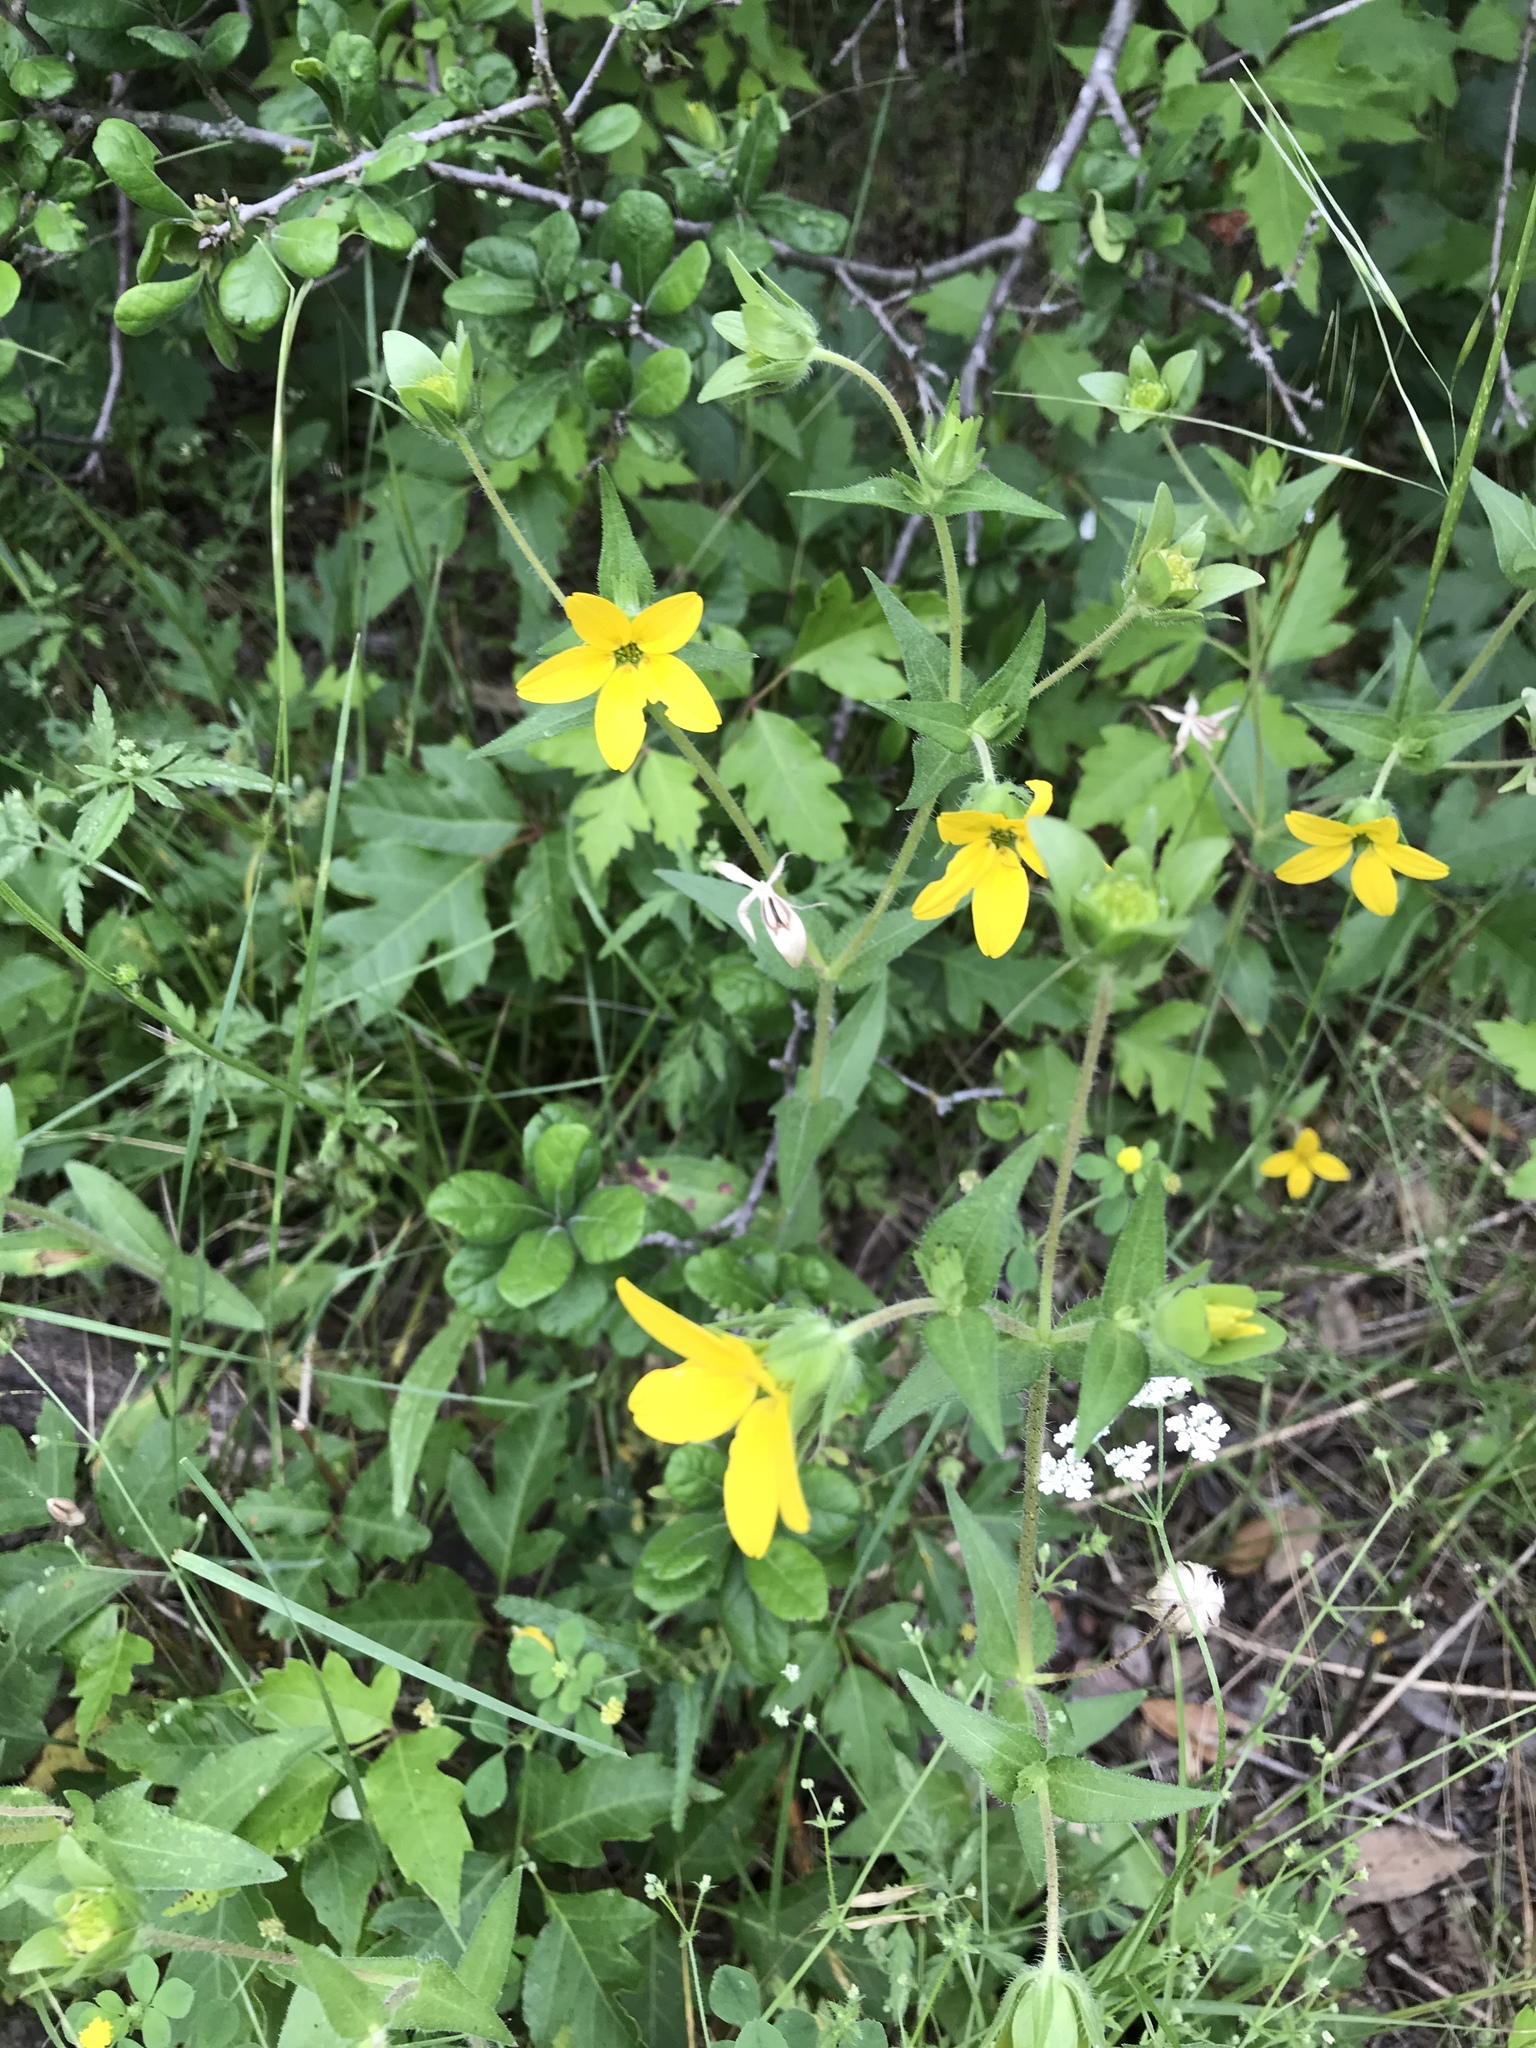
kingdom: Plantae
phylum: Tracheophyta
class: Magnoliopsida
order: Asterales
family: Asteraceae
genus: Lindheimera
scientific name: Lindheimera texana
